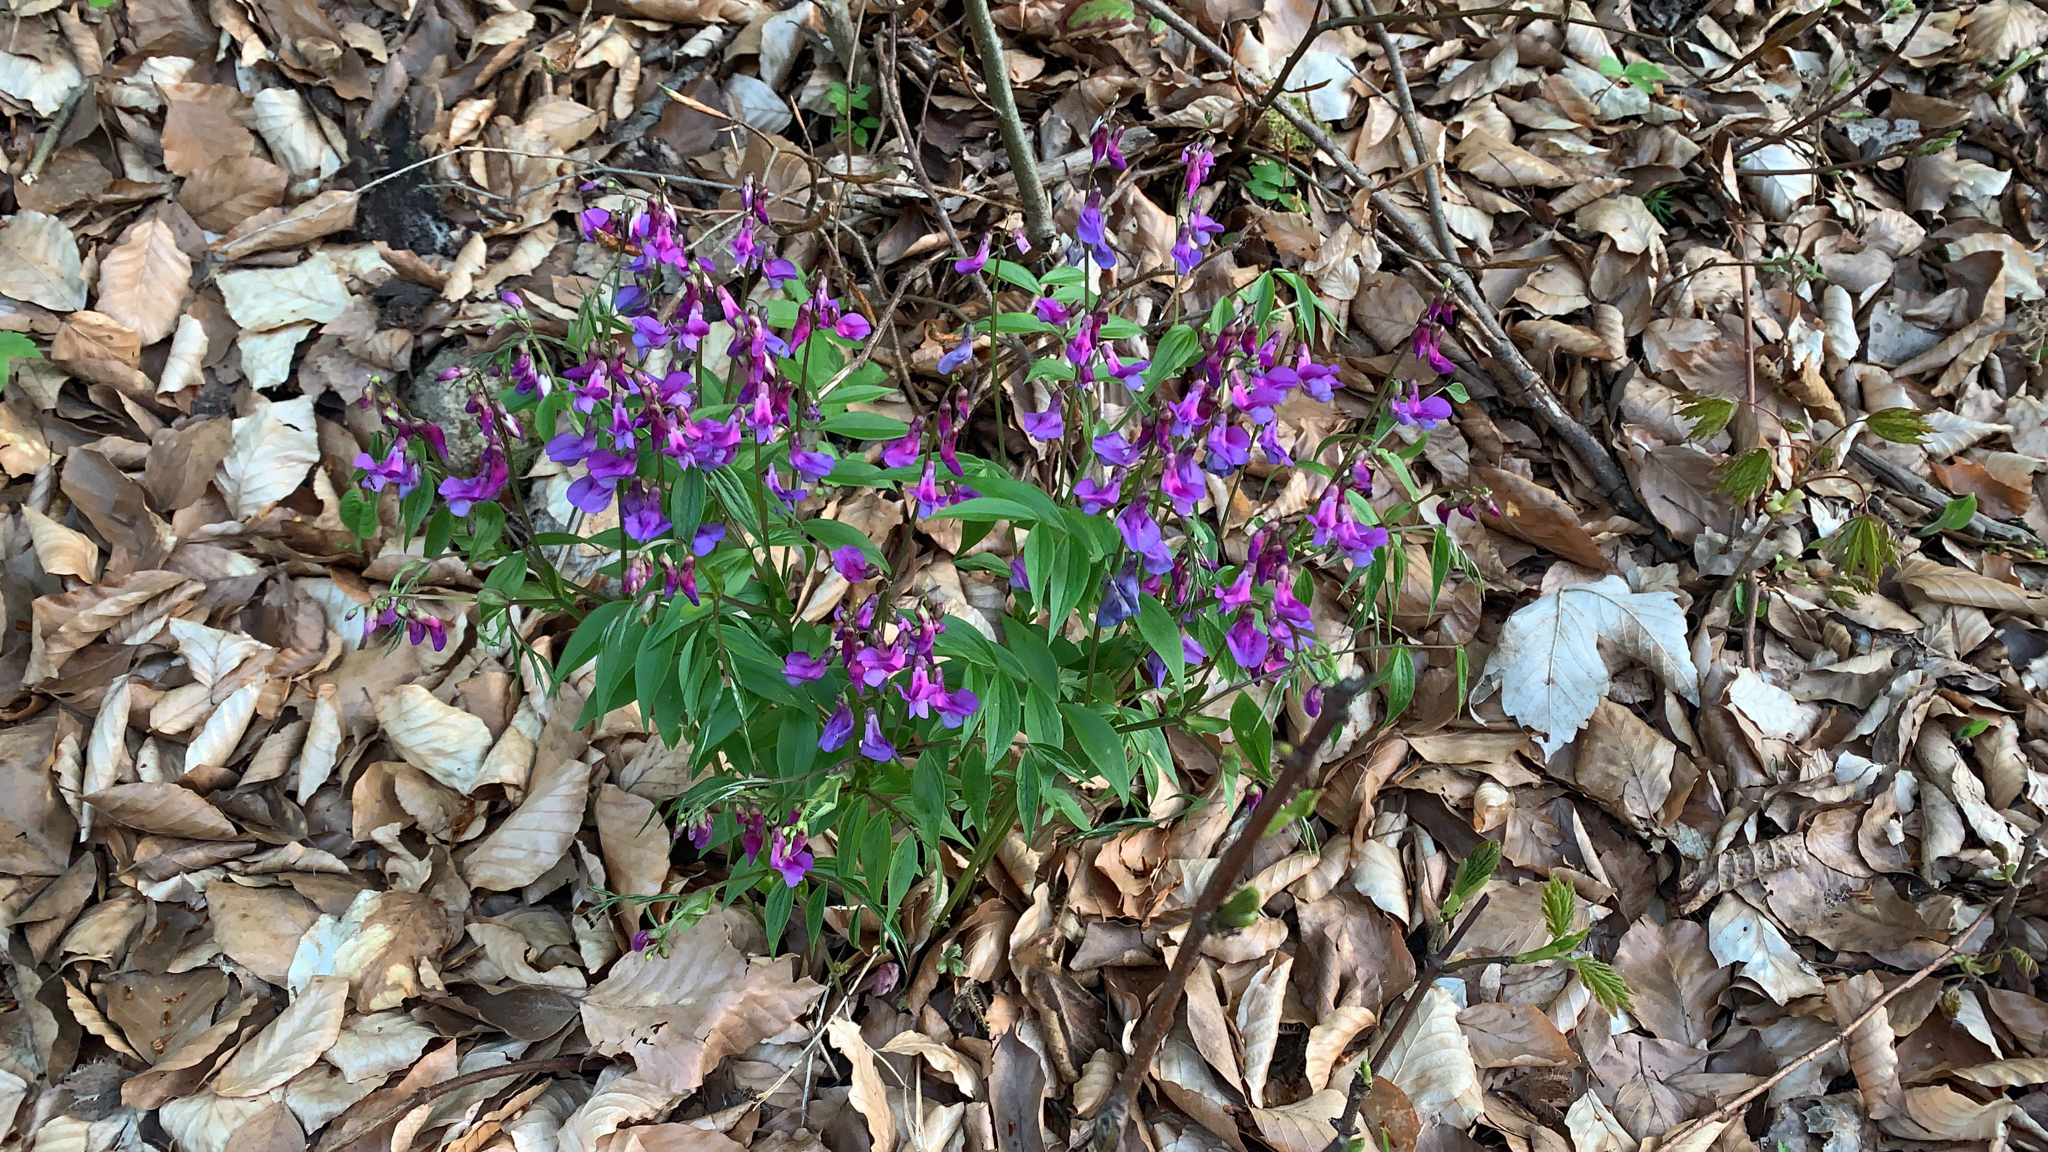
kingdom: Plantae
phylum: Tracheophyta
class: Magnoliopsida
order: Fabales
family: Fabaceae
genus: Lathyrus
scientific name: Lathyrus vernus
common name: Spring pea
